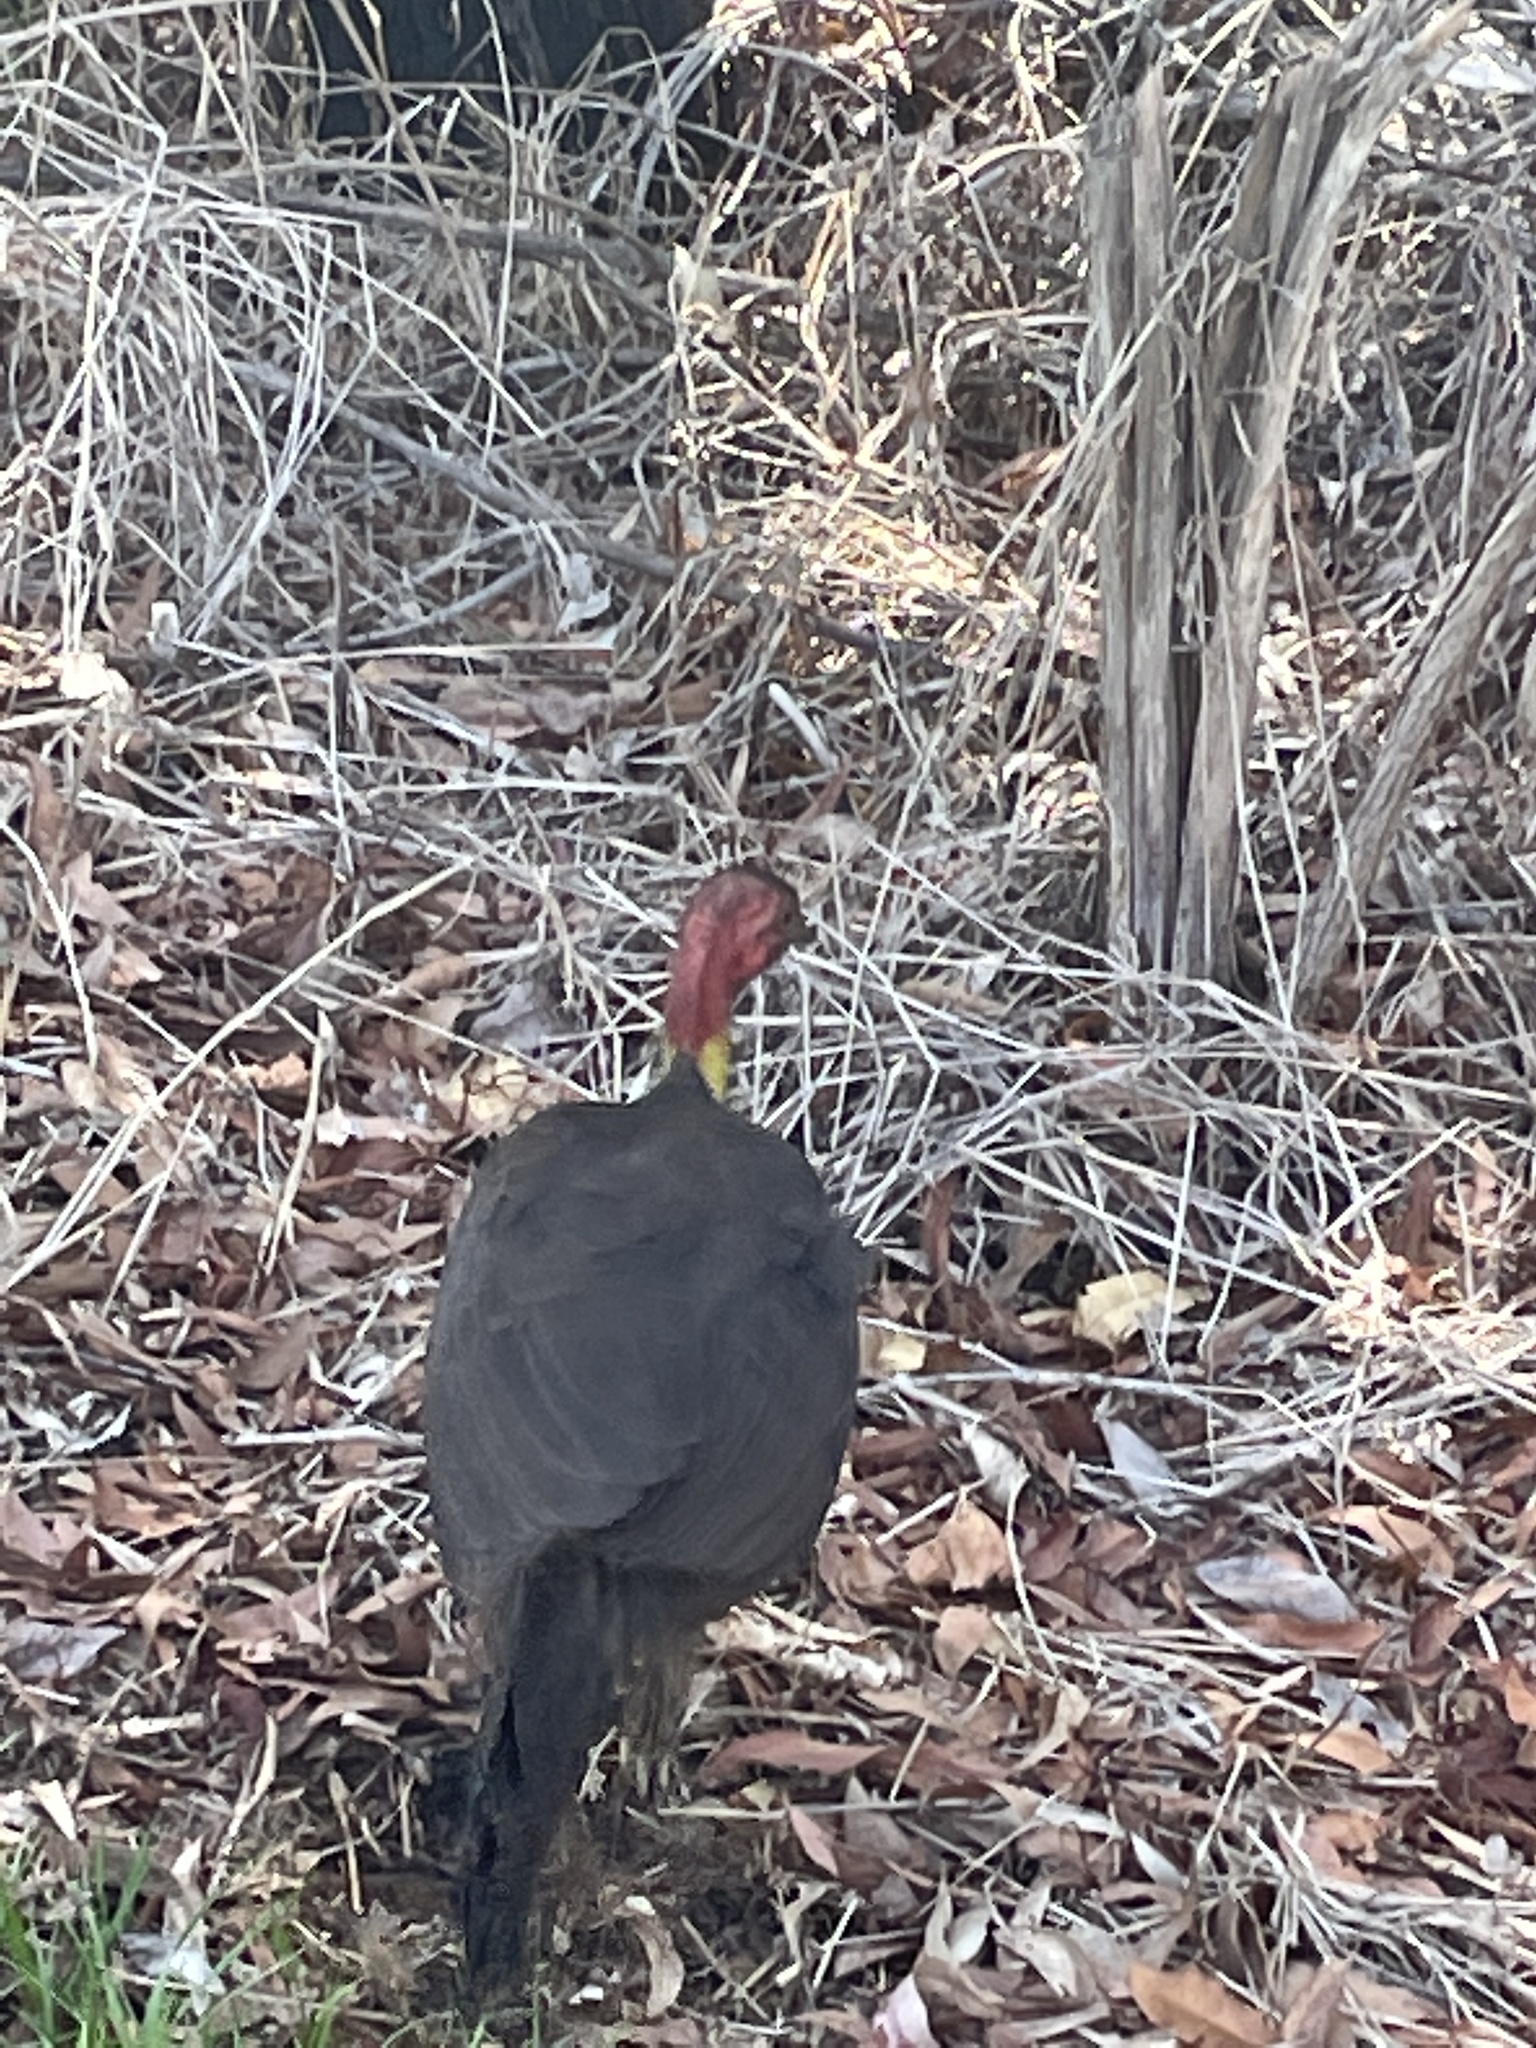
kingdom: Animalia
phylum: Chordata
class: Aves
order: Galliformes
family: Megapodiidae
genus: Alectura
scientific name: Alectura lathami
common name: Australian brushturkey
